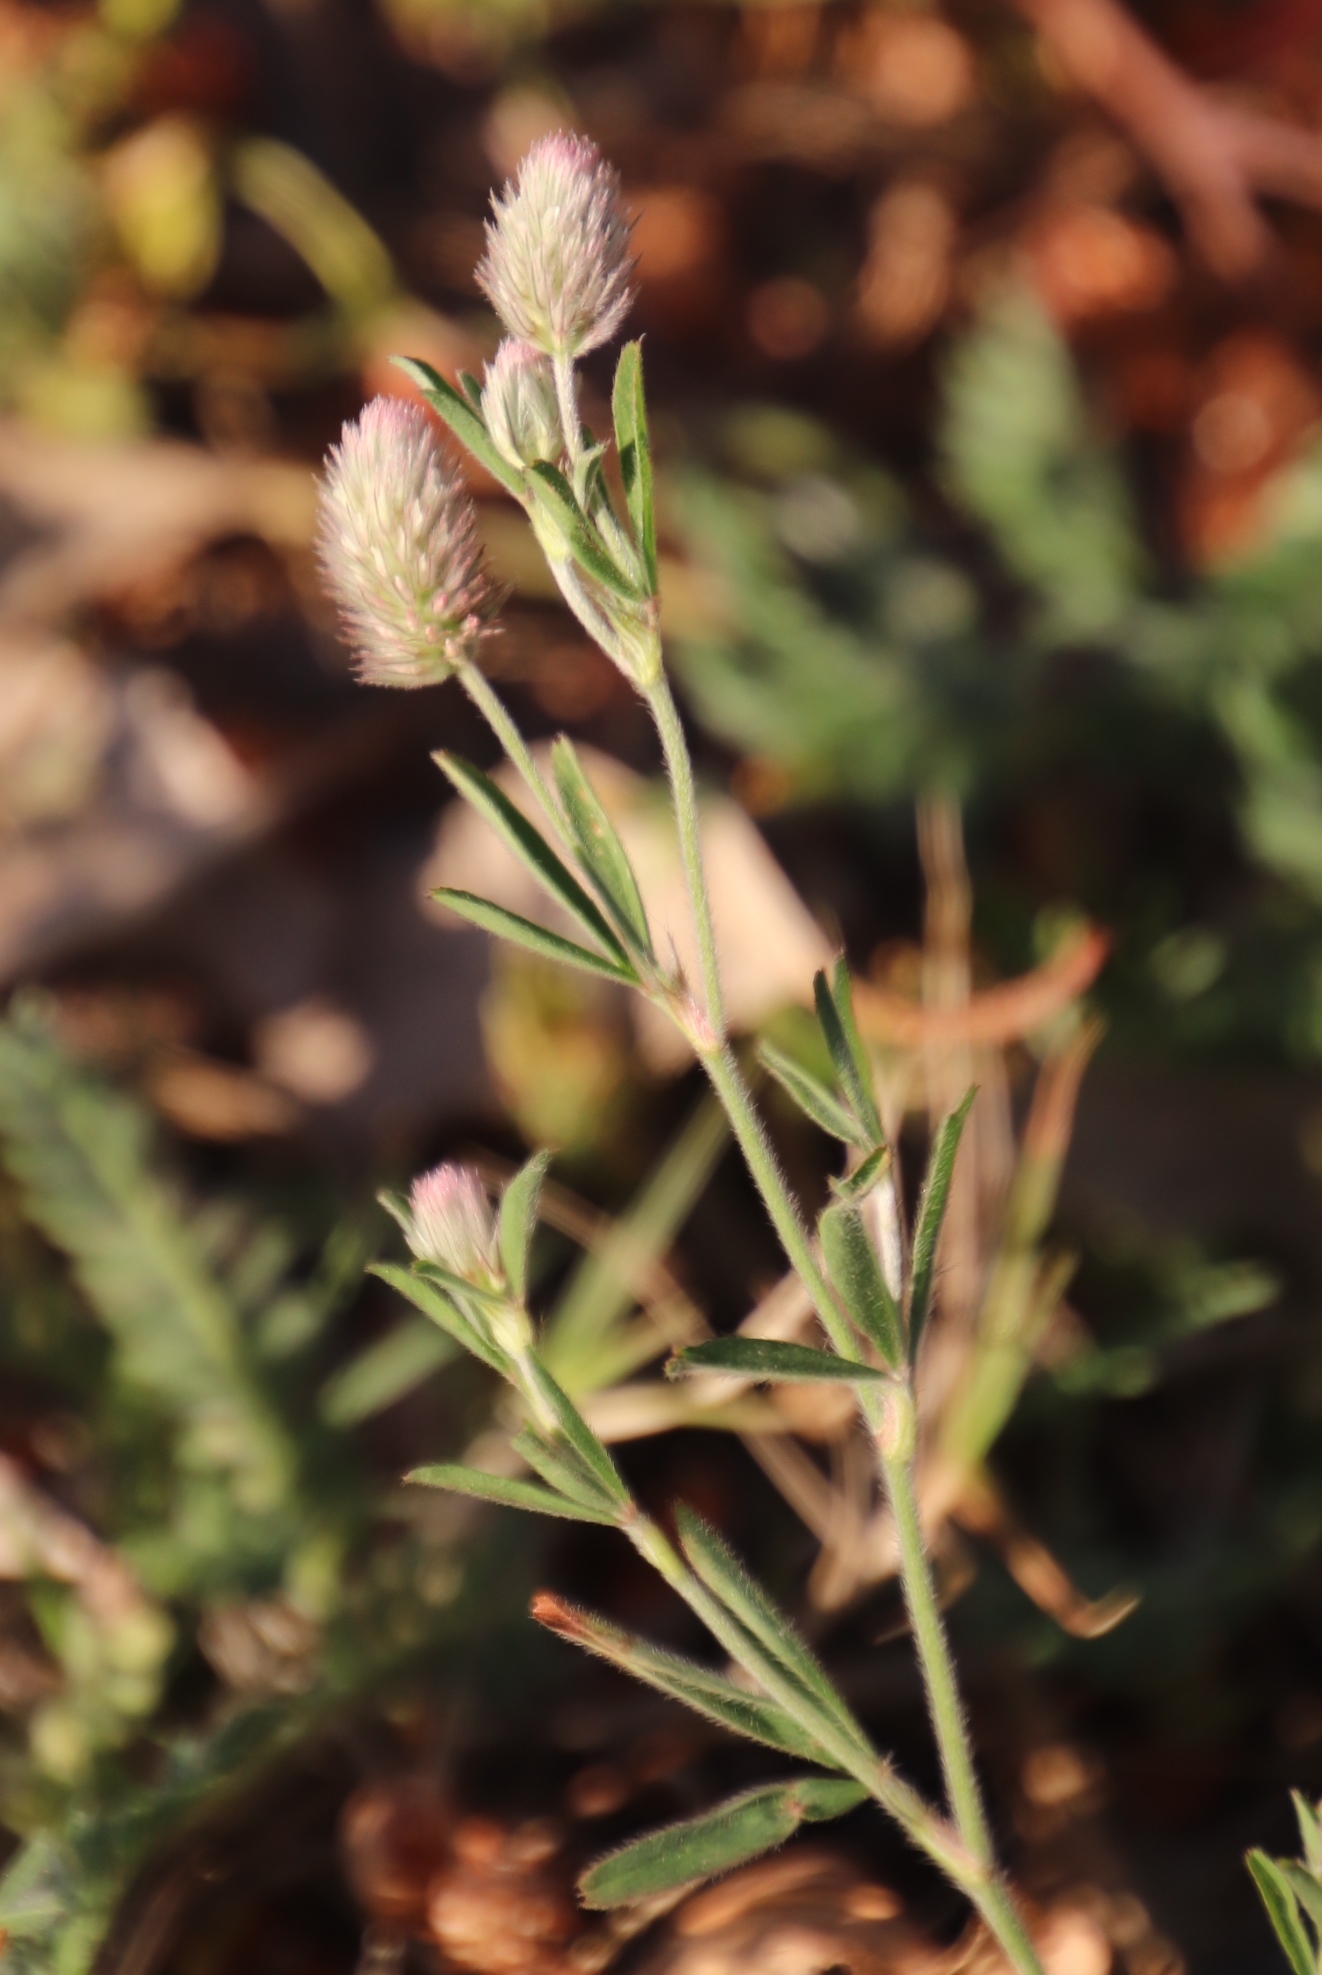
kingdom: Plantae
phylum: Tracheophyta
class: Magnoliopsida
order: Fabales
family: Fabaceae
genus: Trifolium
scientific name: Trifolium arvense
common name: Hare's-foot clover
